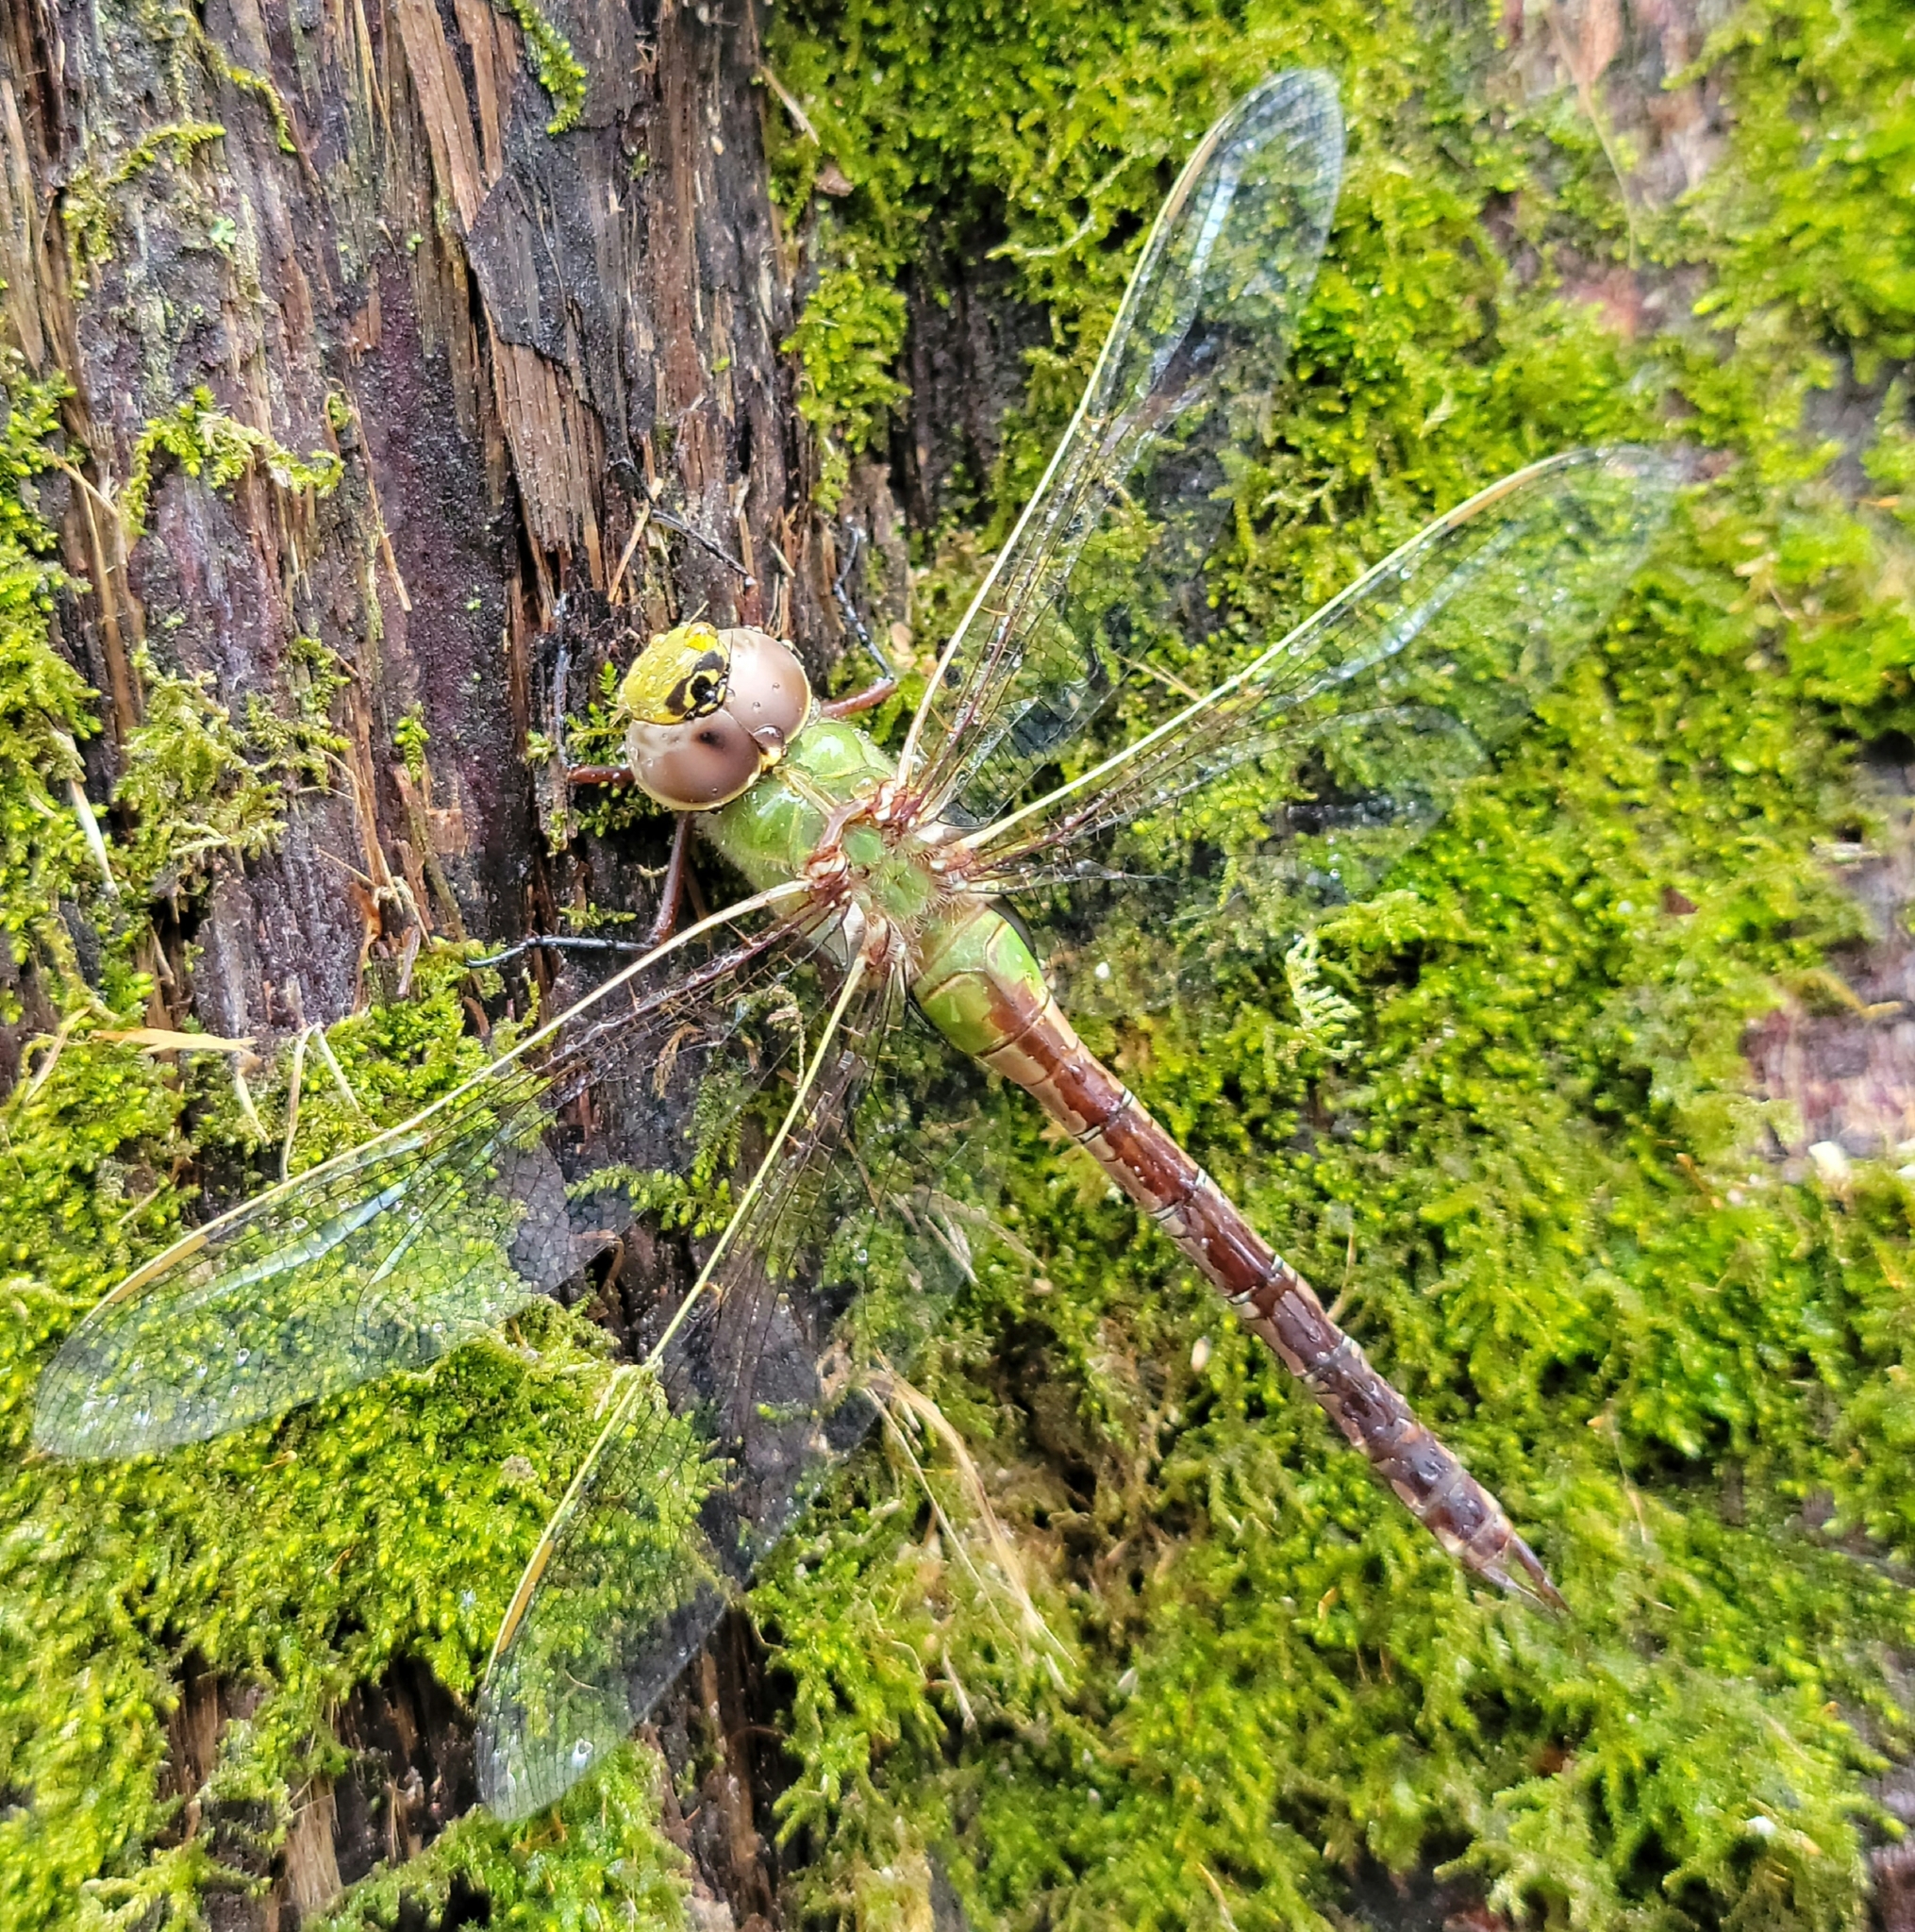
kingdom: Animalia
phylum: Arthropoda
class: Insecta
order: Odonata
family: Aeshnidae
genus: Anax
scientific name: Anax junius
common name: Common green darner
